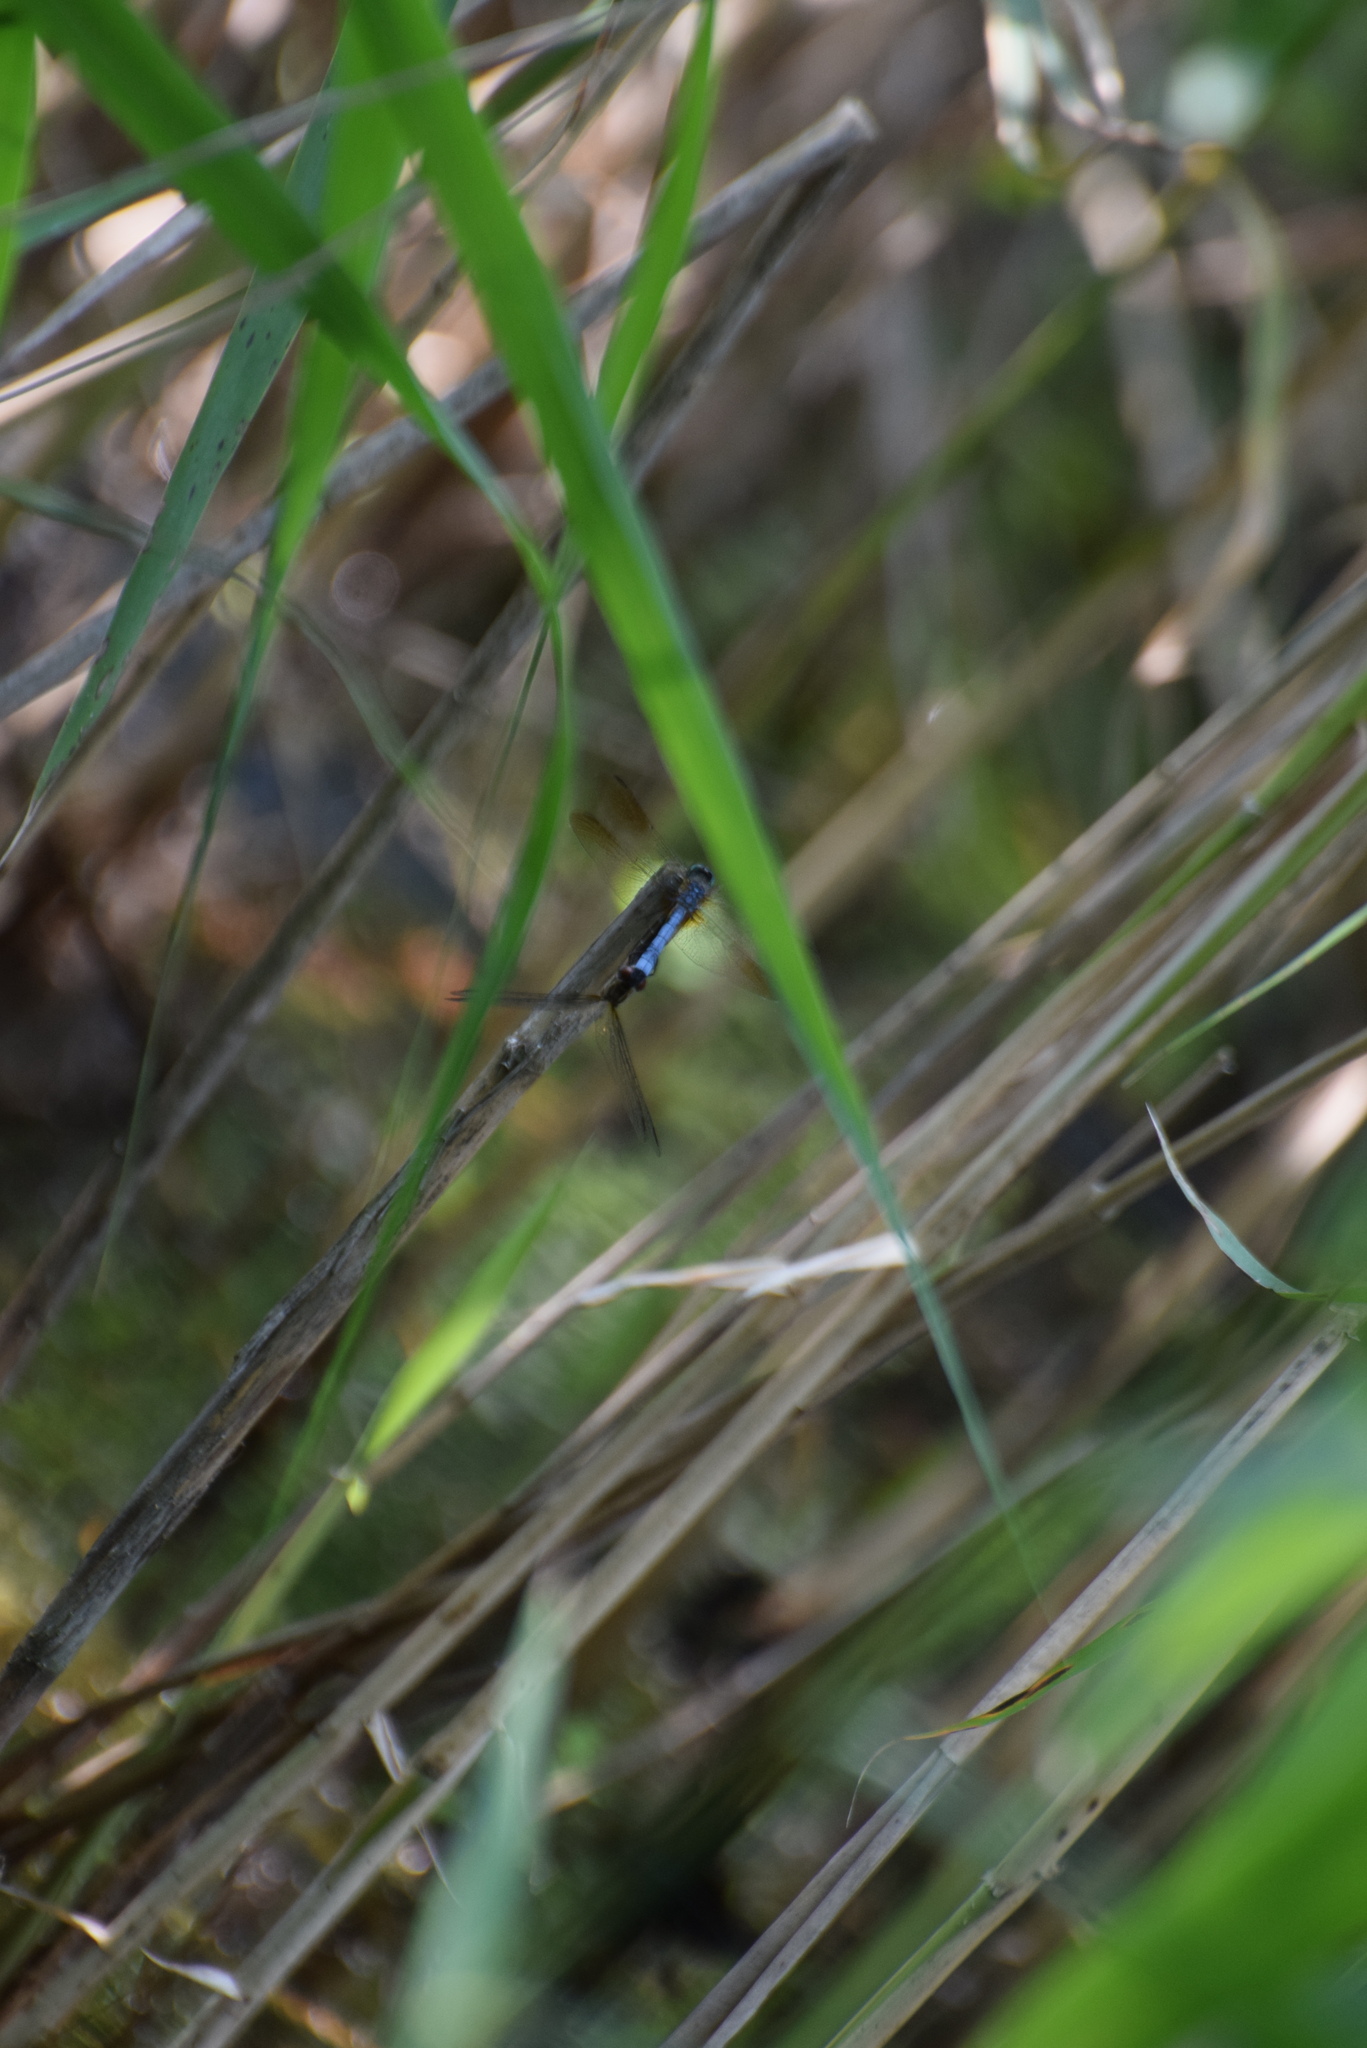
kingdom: Animalia
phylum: Arthropoda
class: Insecta
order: Odonata
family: Libellulidae
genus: Pachydiplax
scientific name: Pachydiplax longipennis
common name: Blue dasher
